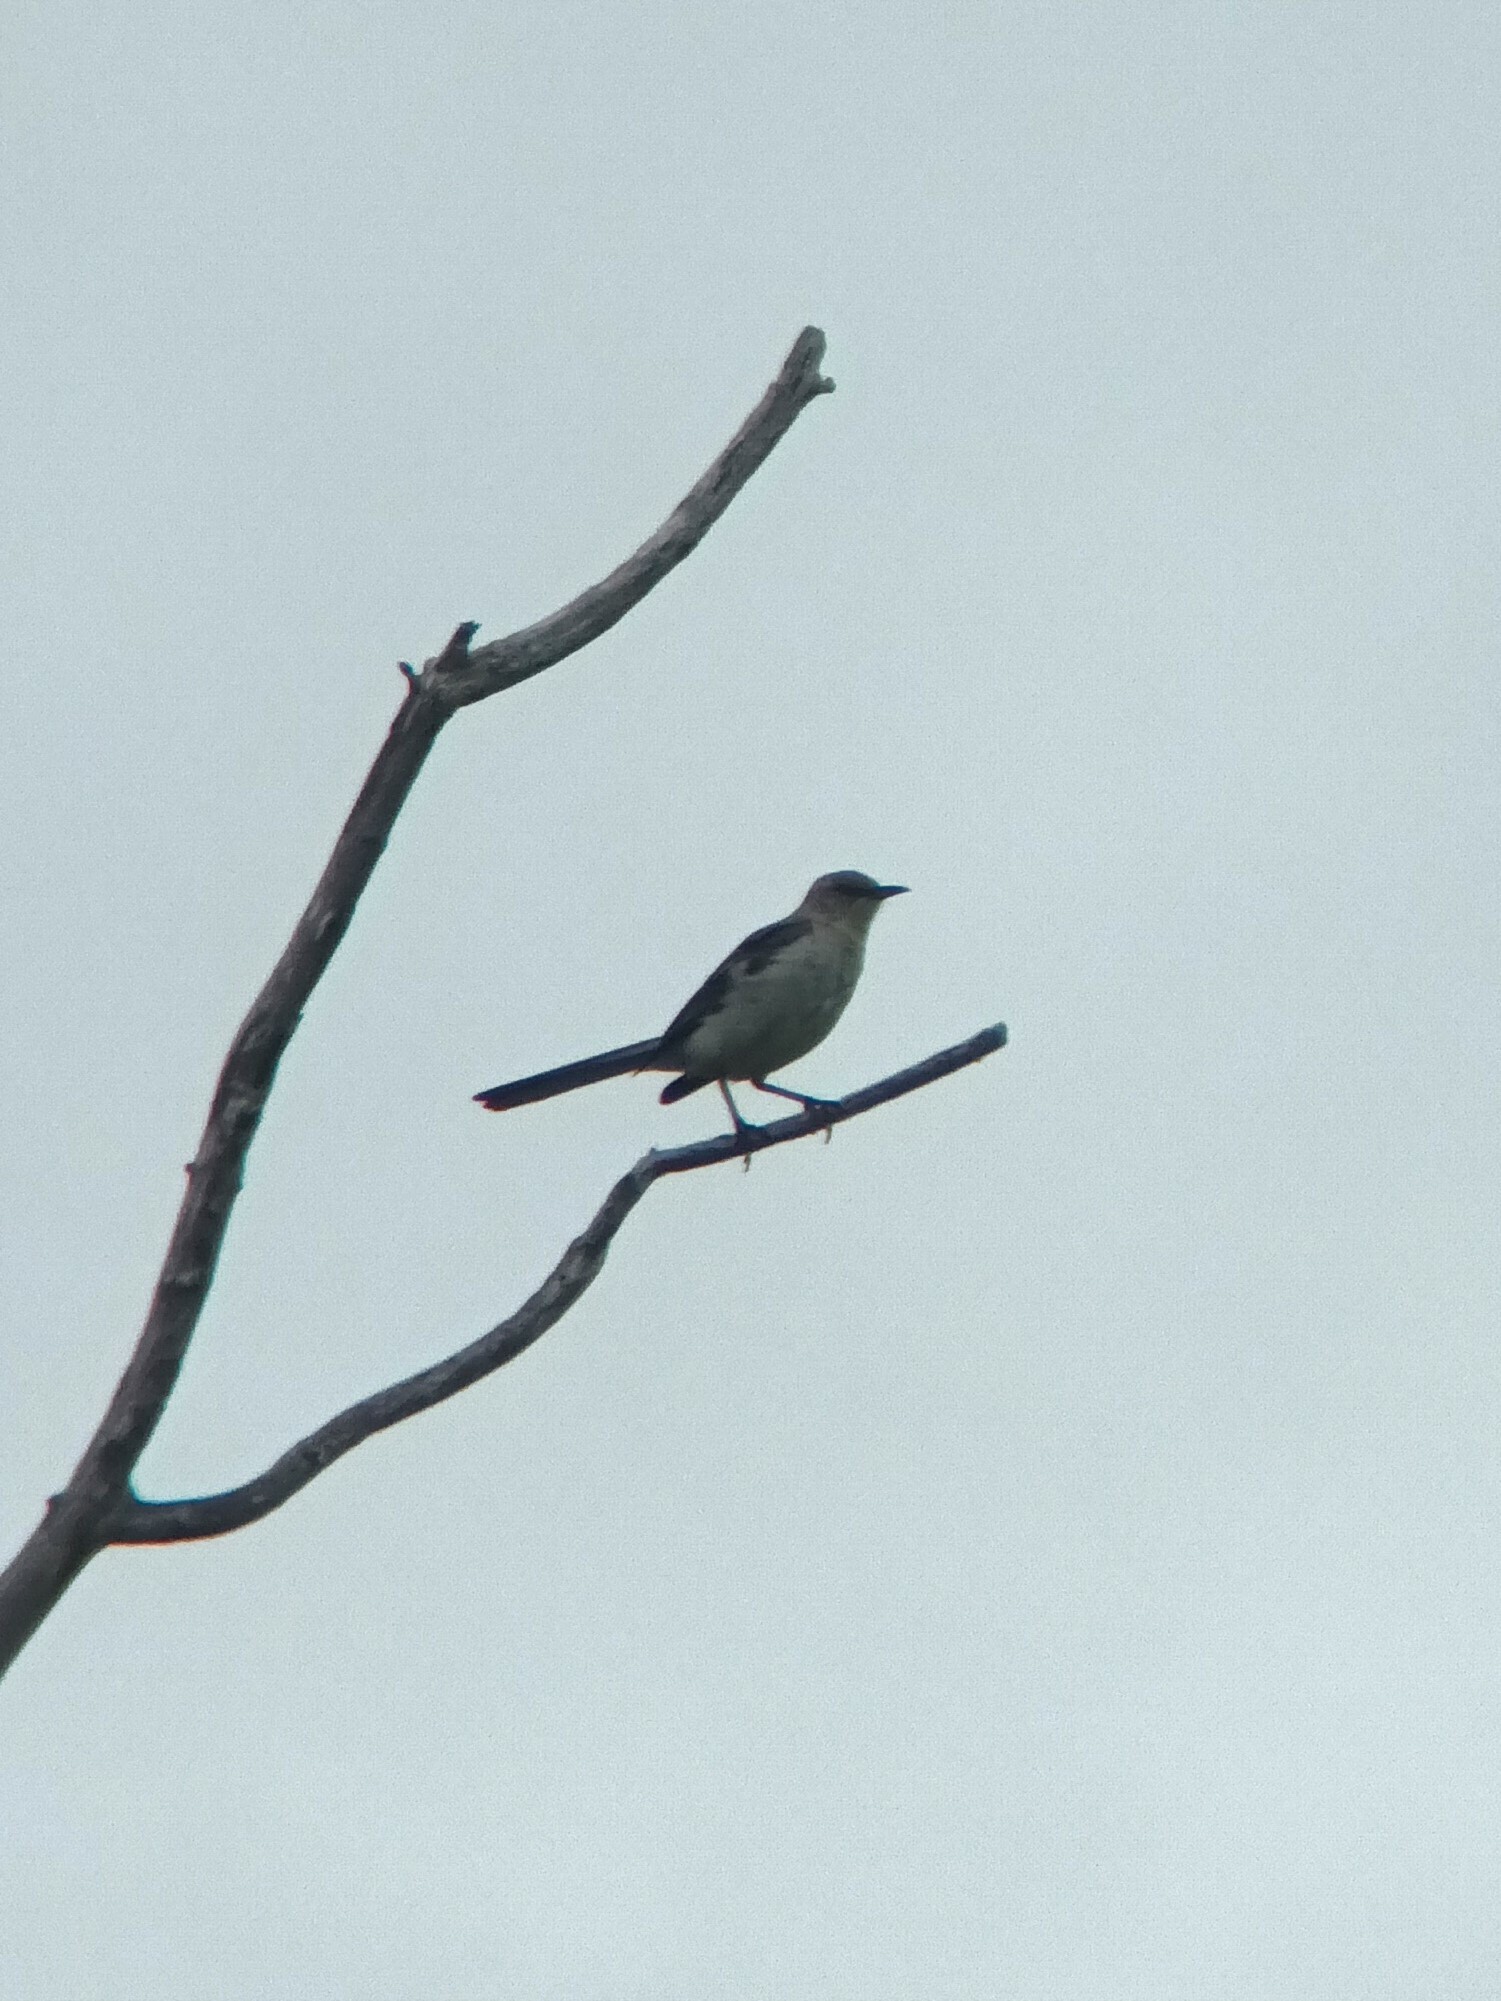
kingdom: Animalia
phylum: Chordata
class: Aves
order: Passeriformes
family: Mimidae
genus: Mimus
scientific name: Mimus polyglottos
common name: Northern mockingbird
